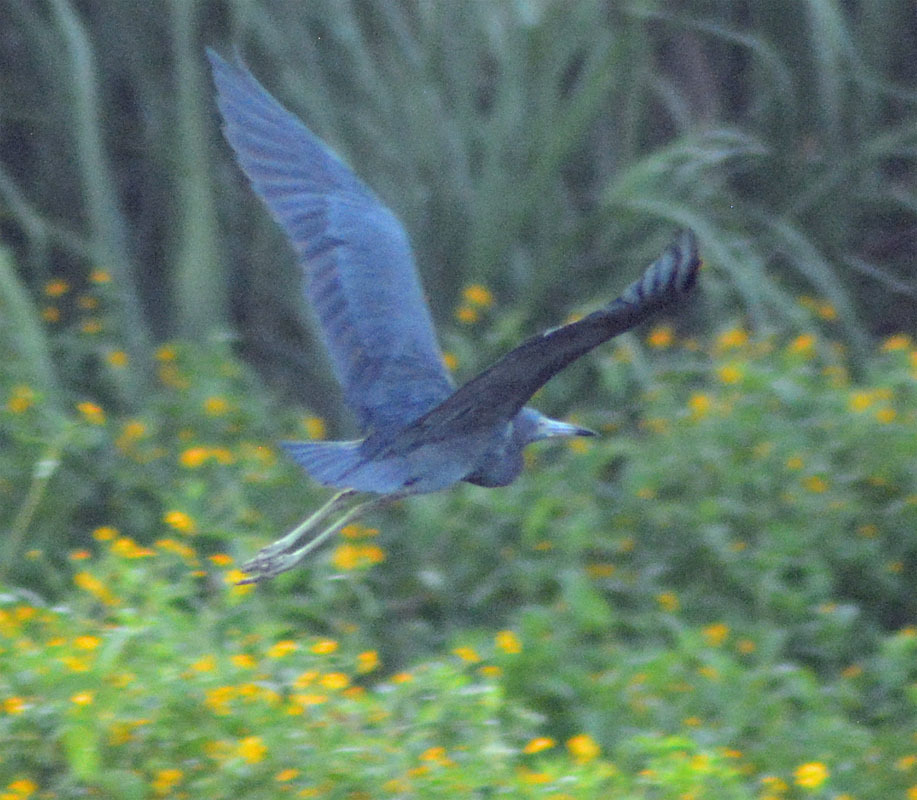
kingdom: Animalia
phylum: Chordata
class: Aves
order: Pelecaniformes
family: Ardeidae
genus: Egretta
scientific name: Egretta caerulea
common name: Little blue heron
